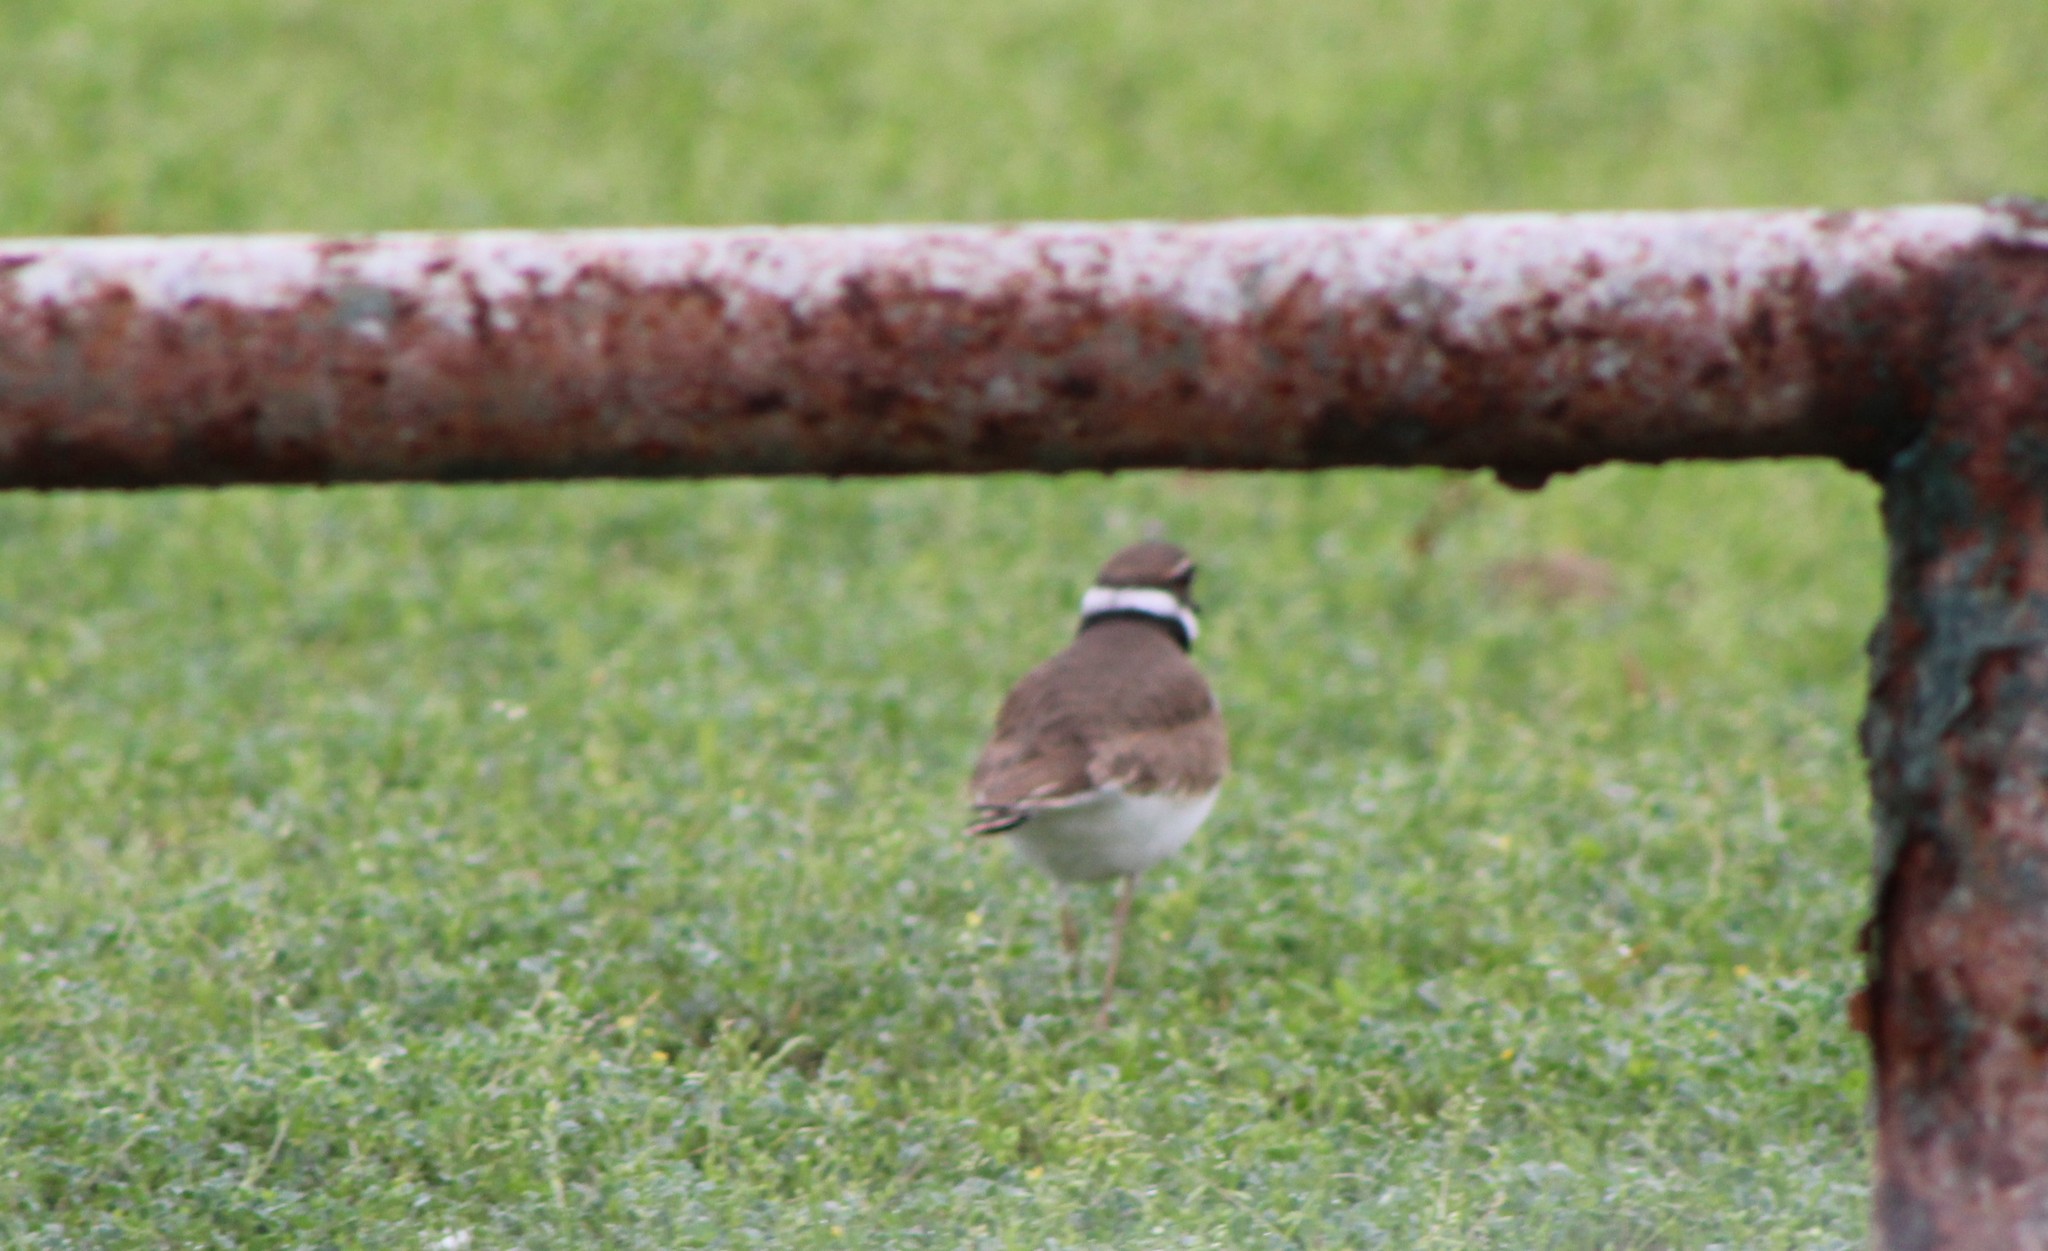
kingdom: Animalia
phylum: Chordata
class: Aves
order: Charadriiformes
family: Charadriidae
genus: Charadrius
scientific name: Charadrius vociferus
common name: Killdeer
